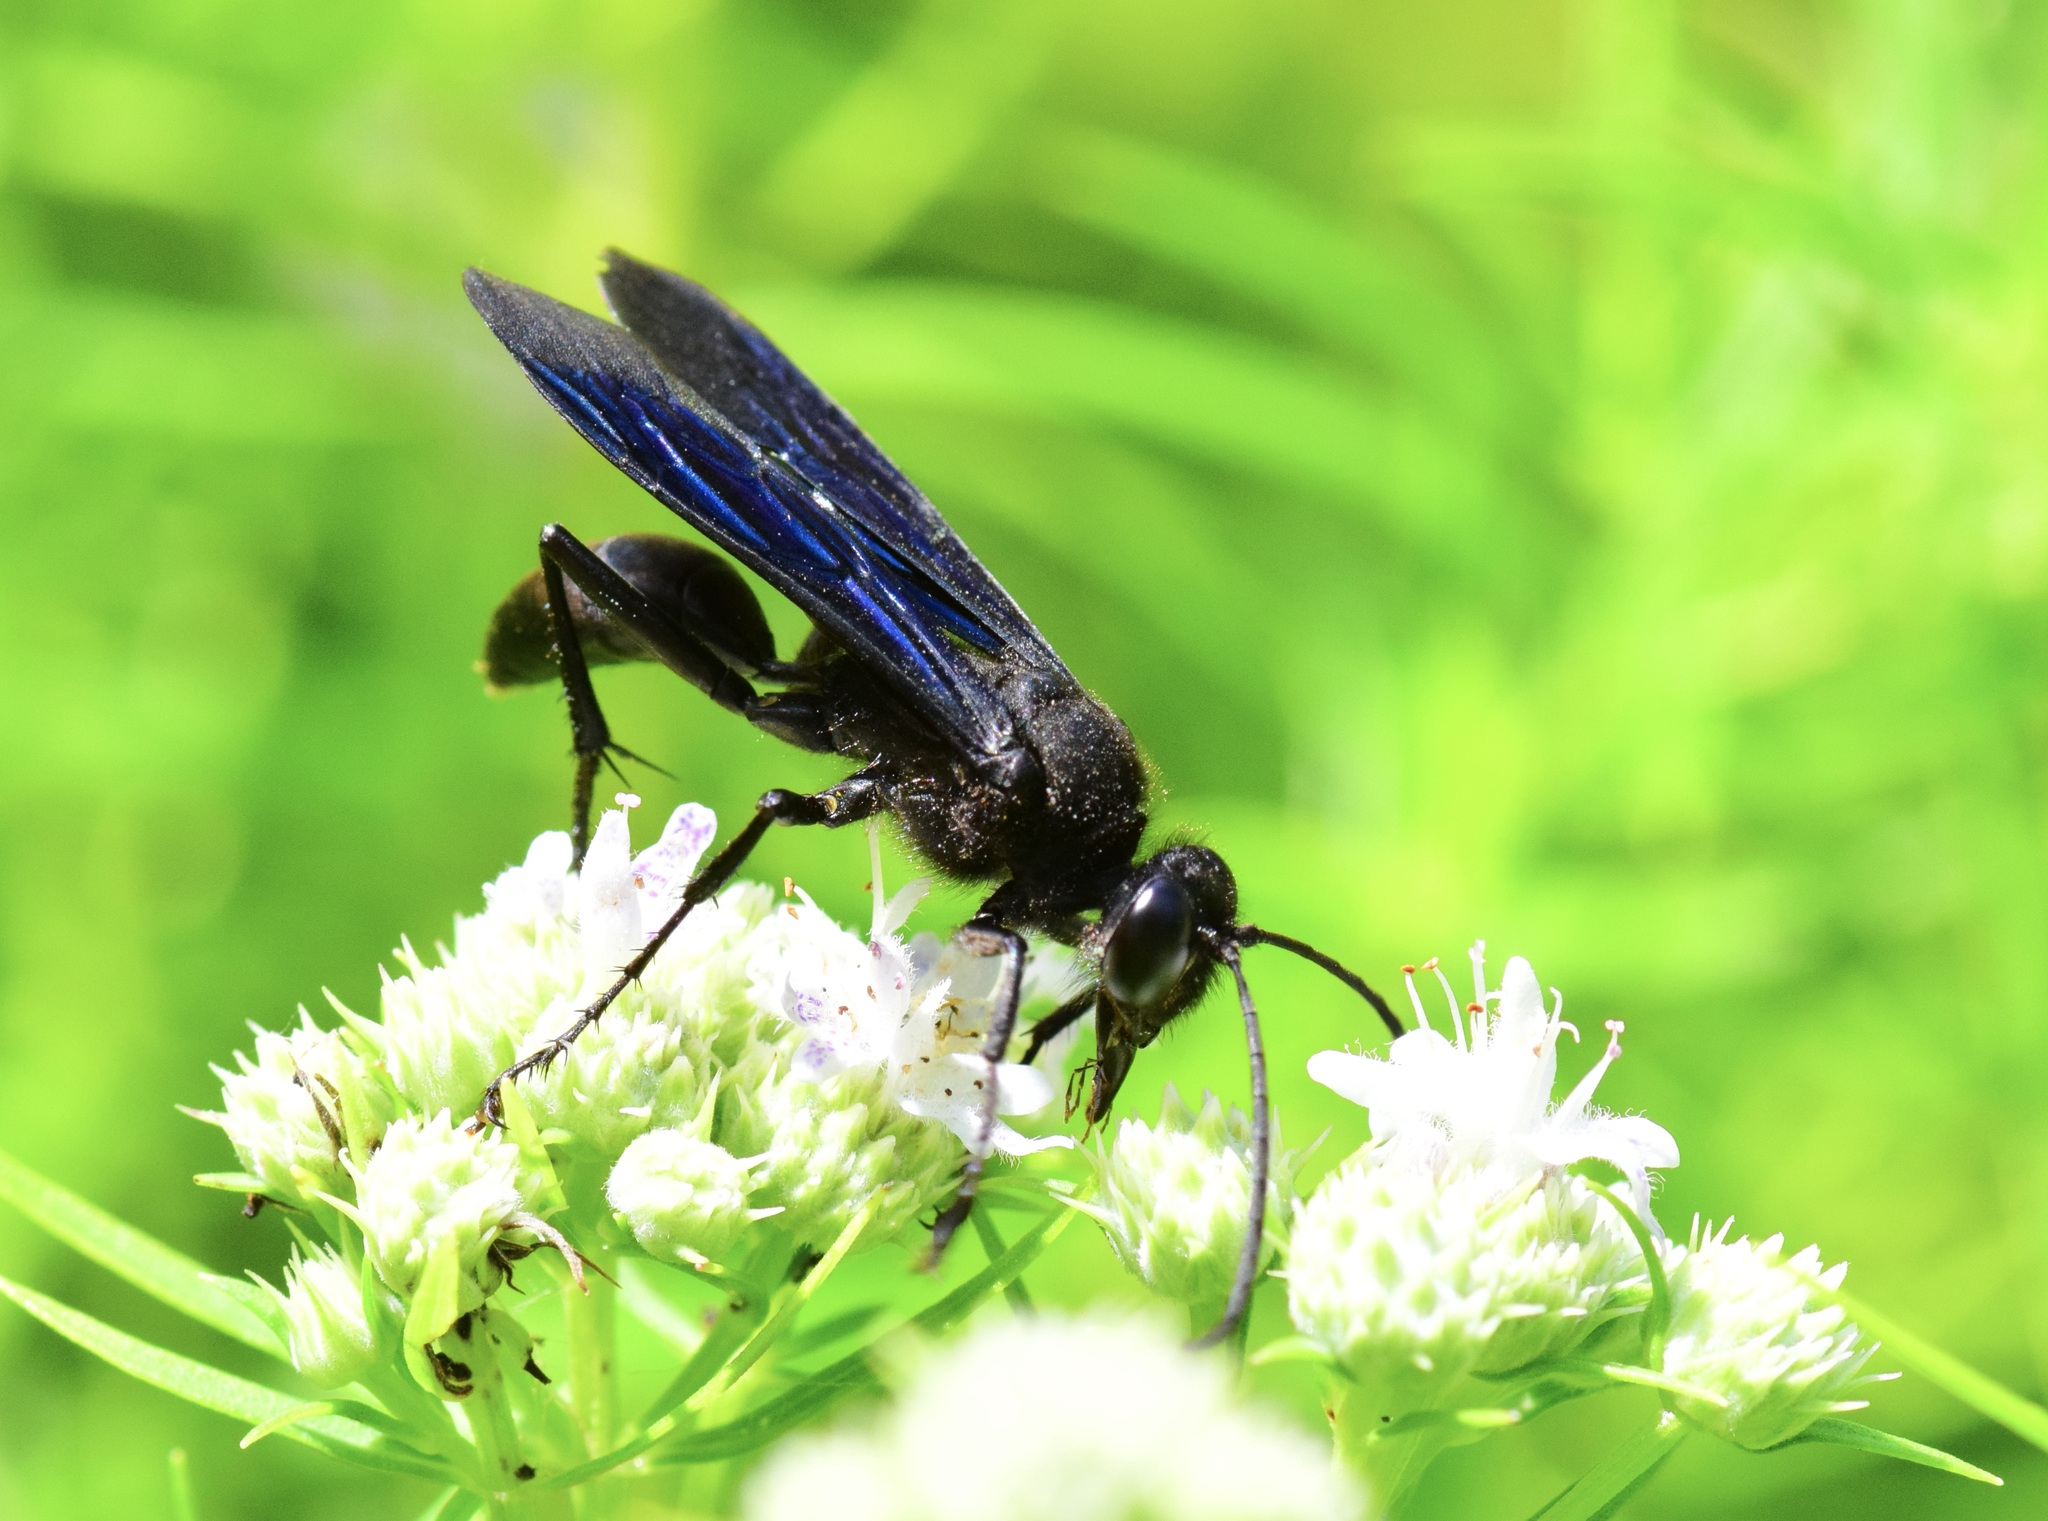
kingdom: Animalia
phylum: Arthropoda
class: Insecta
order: Hymenoptera
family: Sphecidae
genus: Sphex
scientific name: Sphex pensylvanicus
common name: Great black digger wasp
